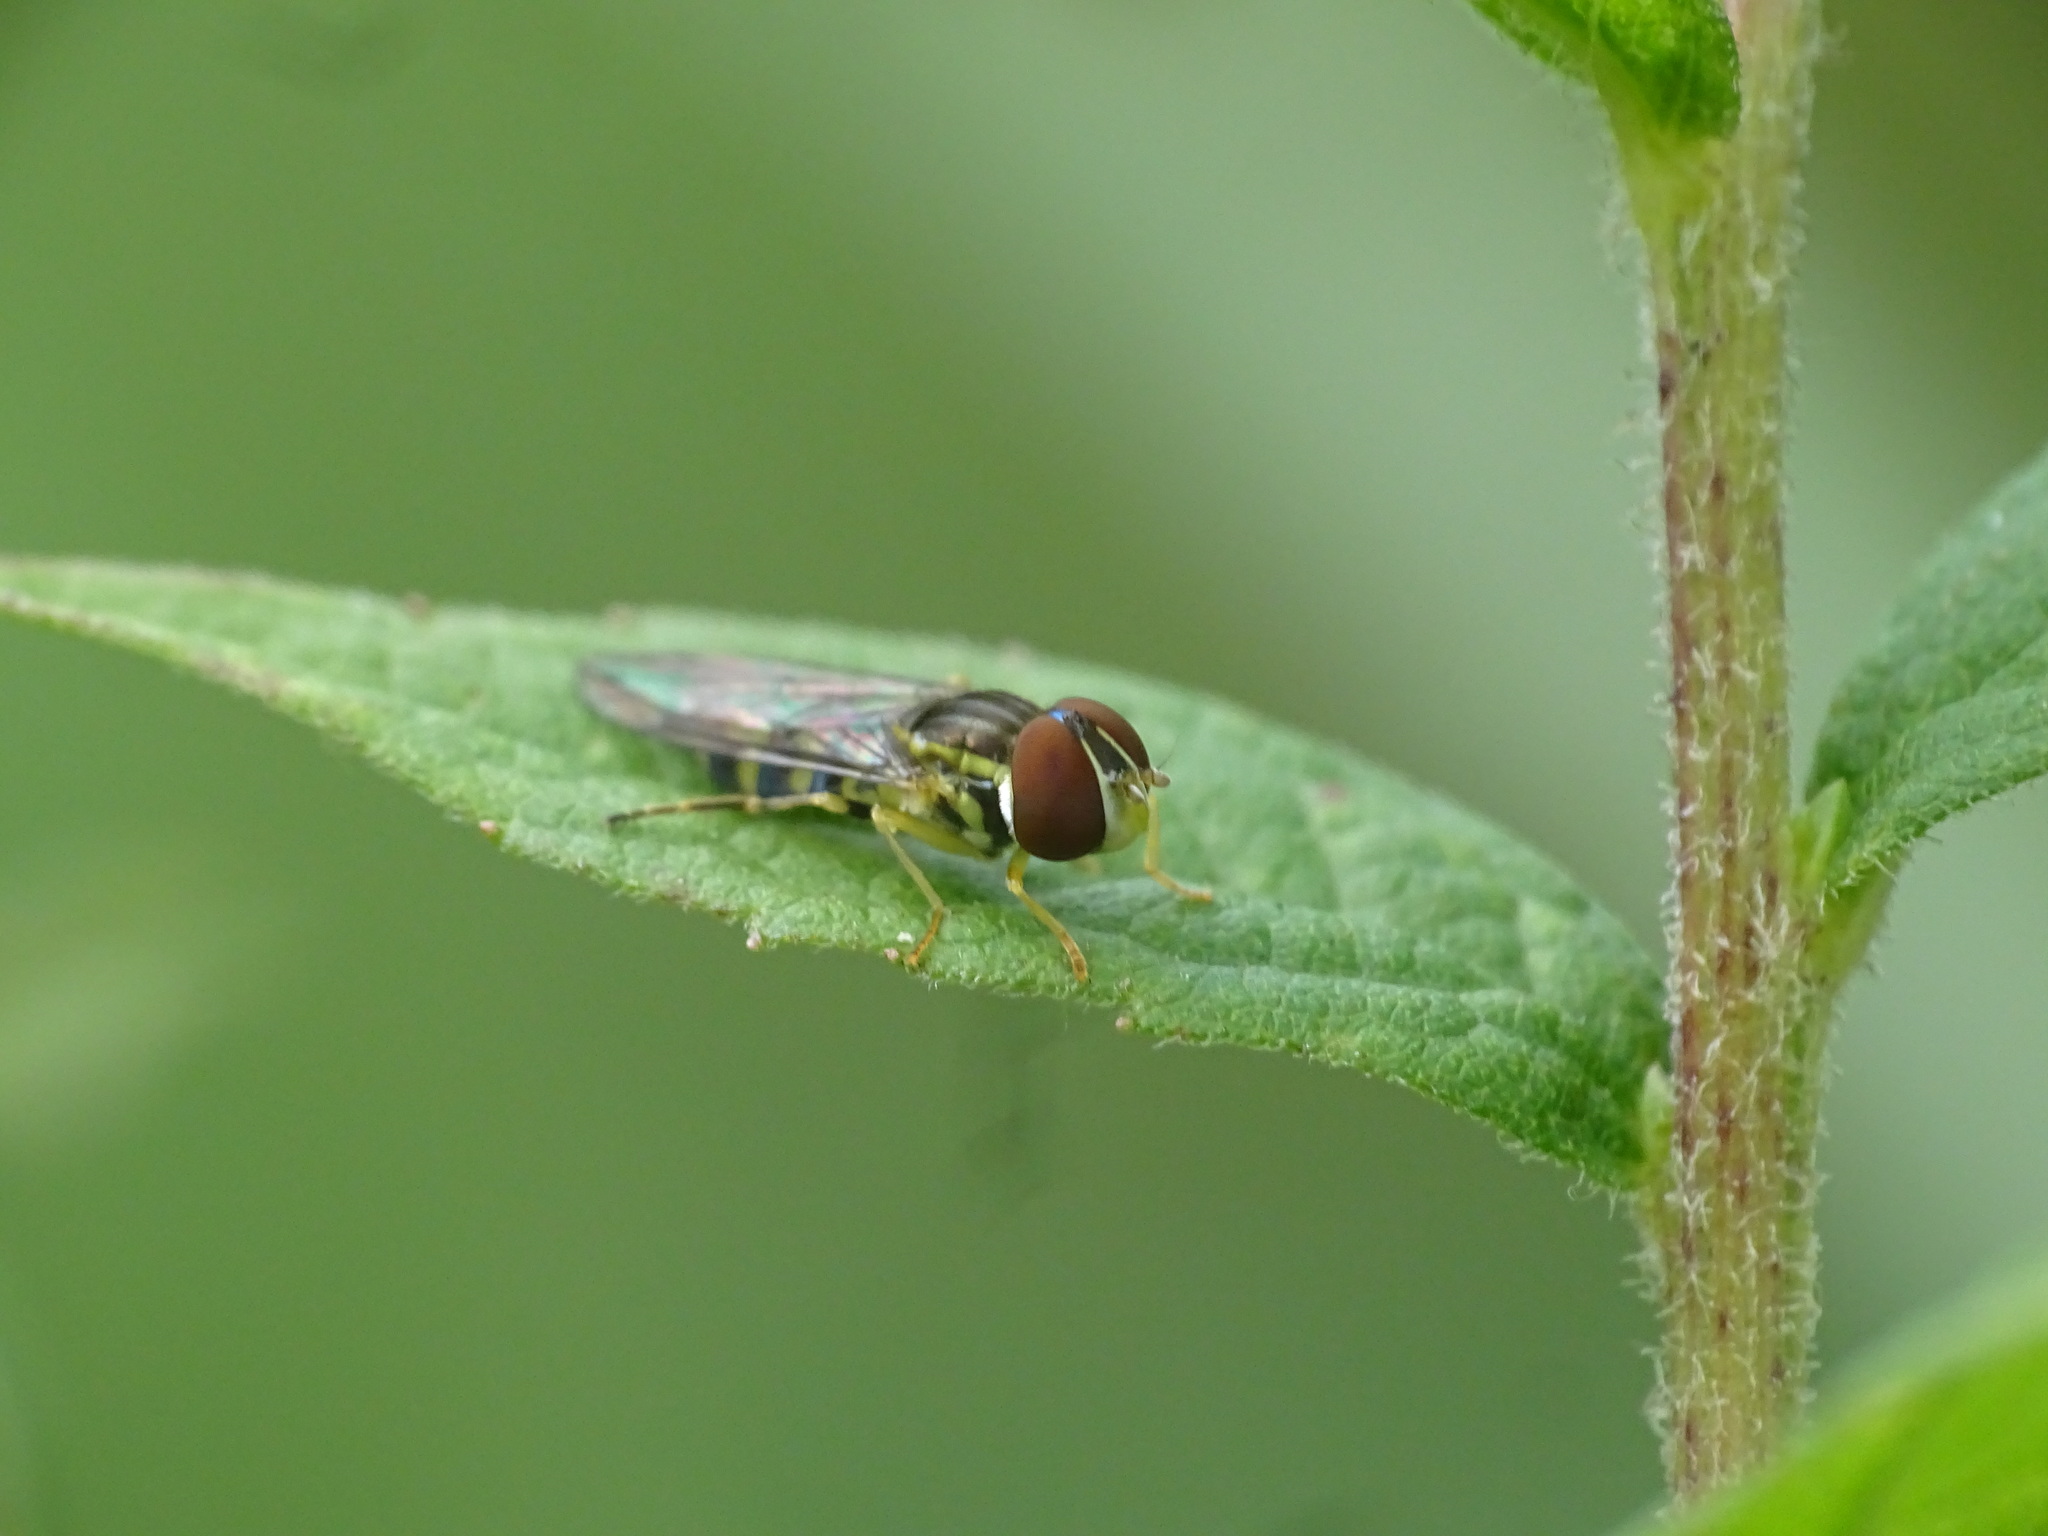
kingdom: Animalia
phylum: Arthropoda
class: Insecta
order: Diptera
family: Syrphidae
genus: Toxomerus
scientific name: Toxomerus geminatus
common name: Eastern calligrapher
